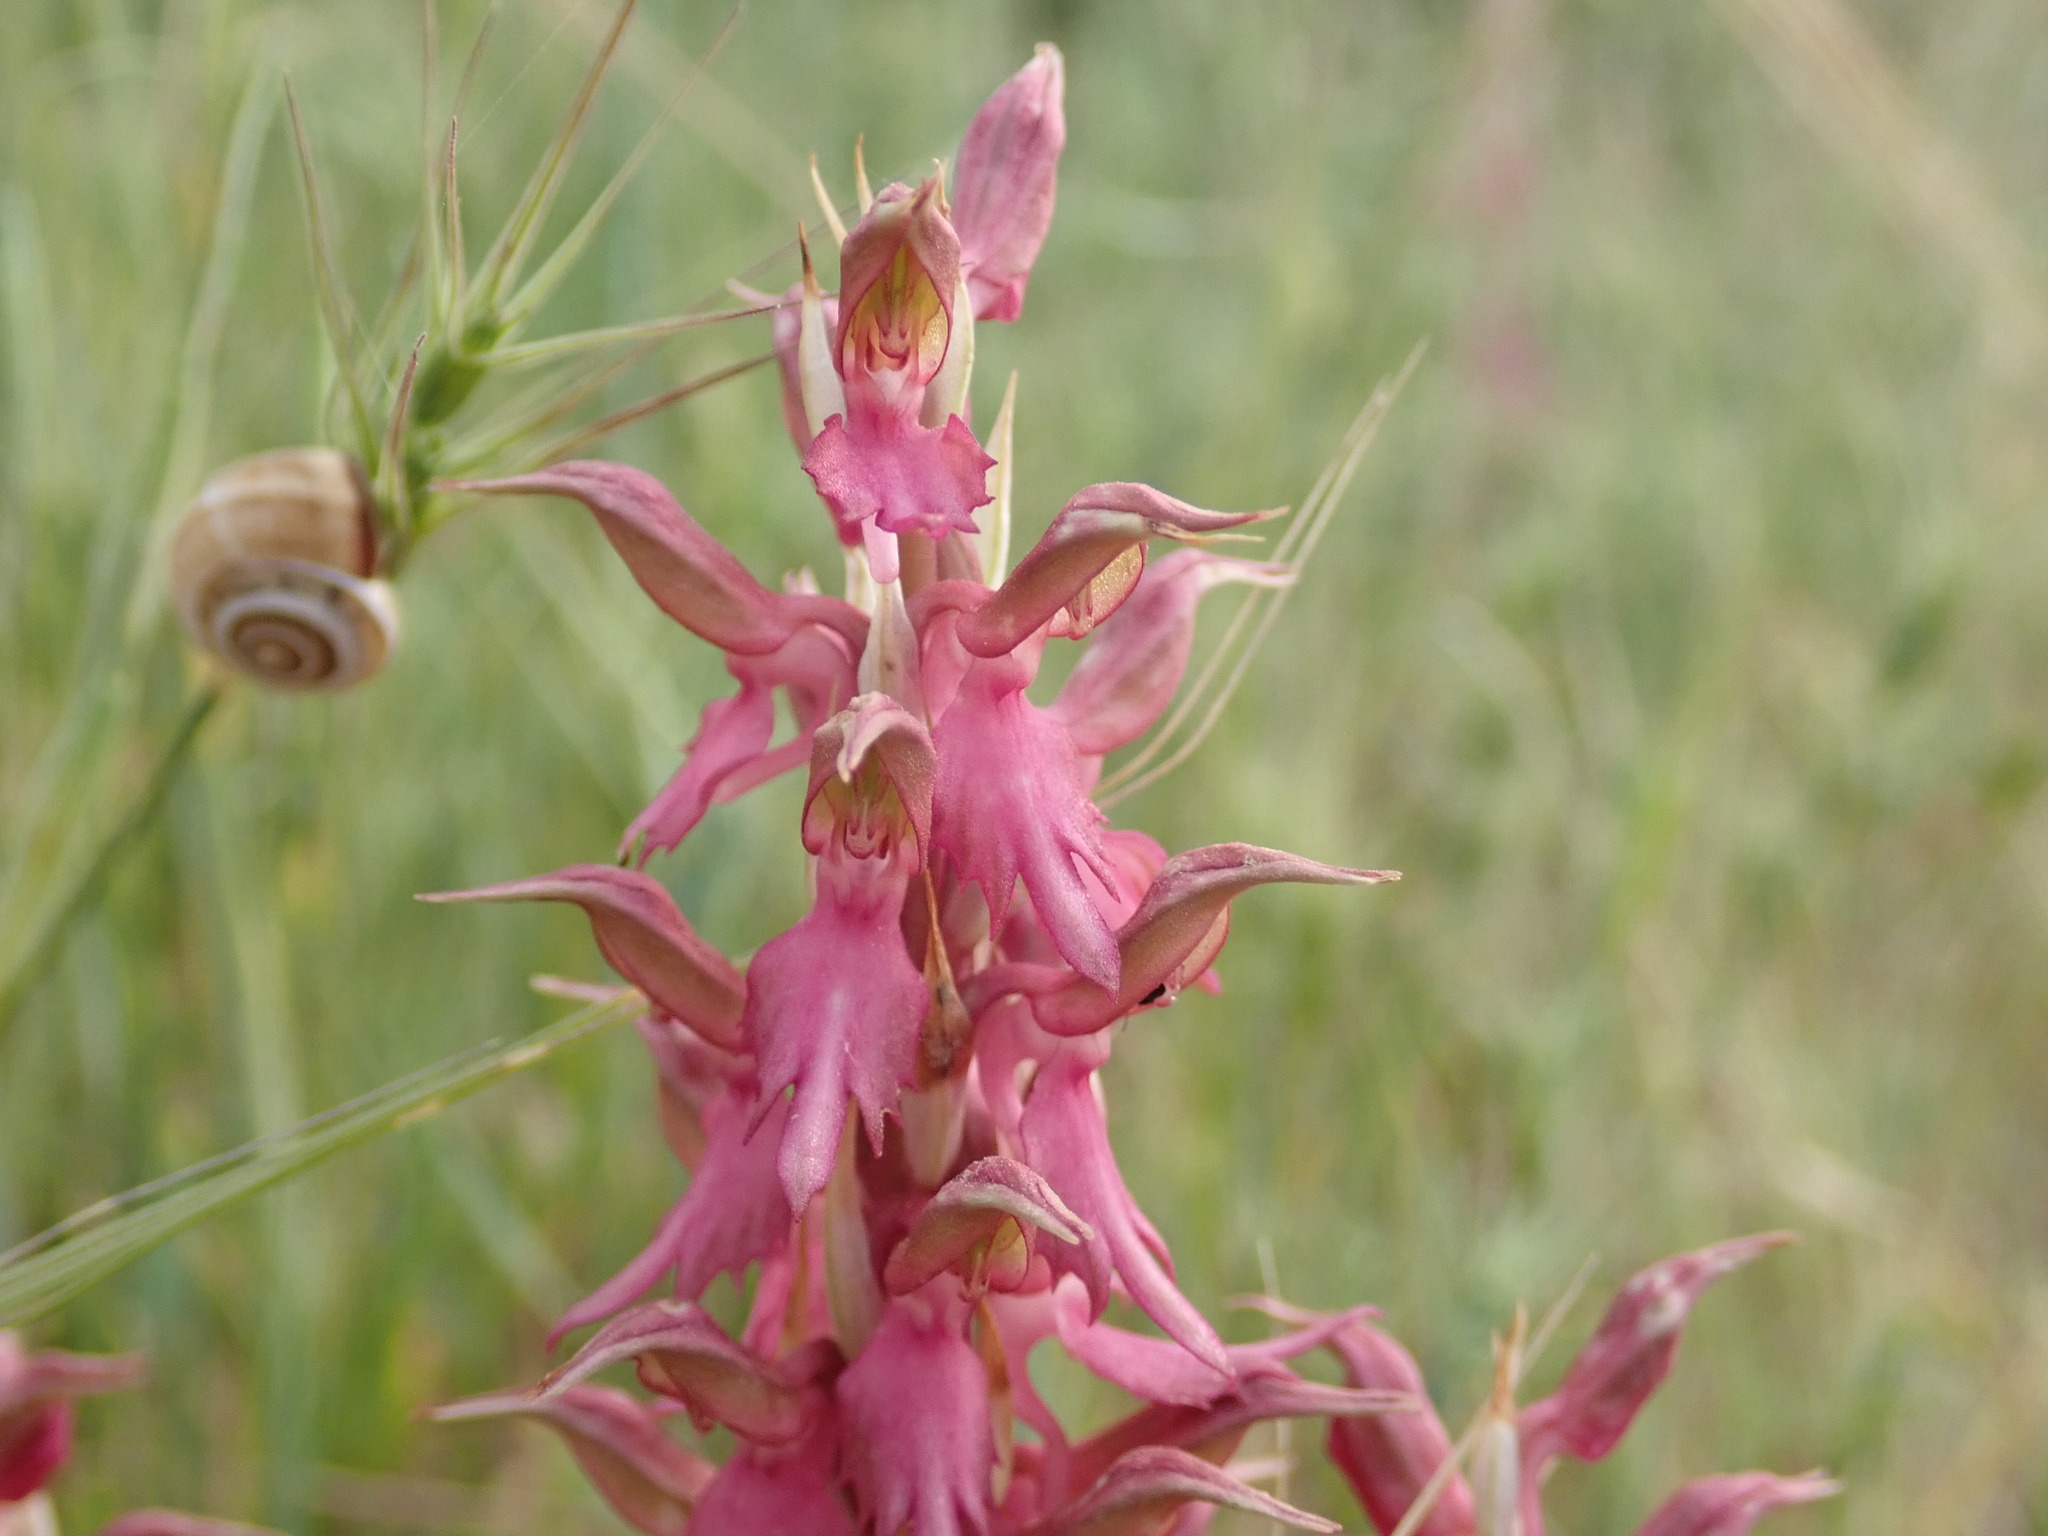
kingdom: Plantae
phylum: Tracheophyta
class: Liliopsida
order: Asparagales
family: Orchidaceae
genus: Anacamptis
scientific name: Anacamptis sancta
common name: Holy orchid
